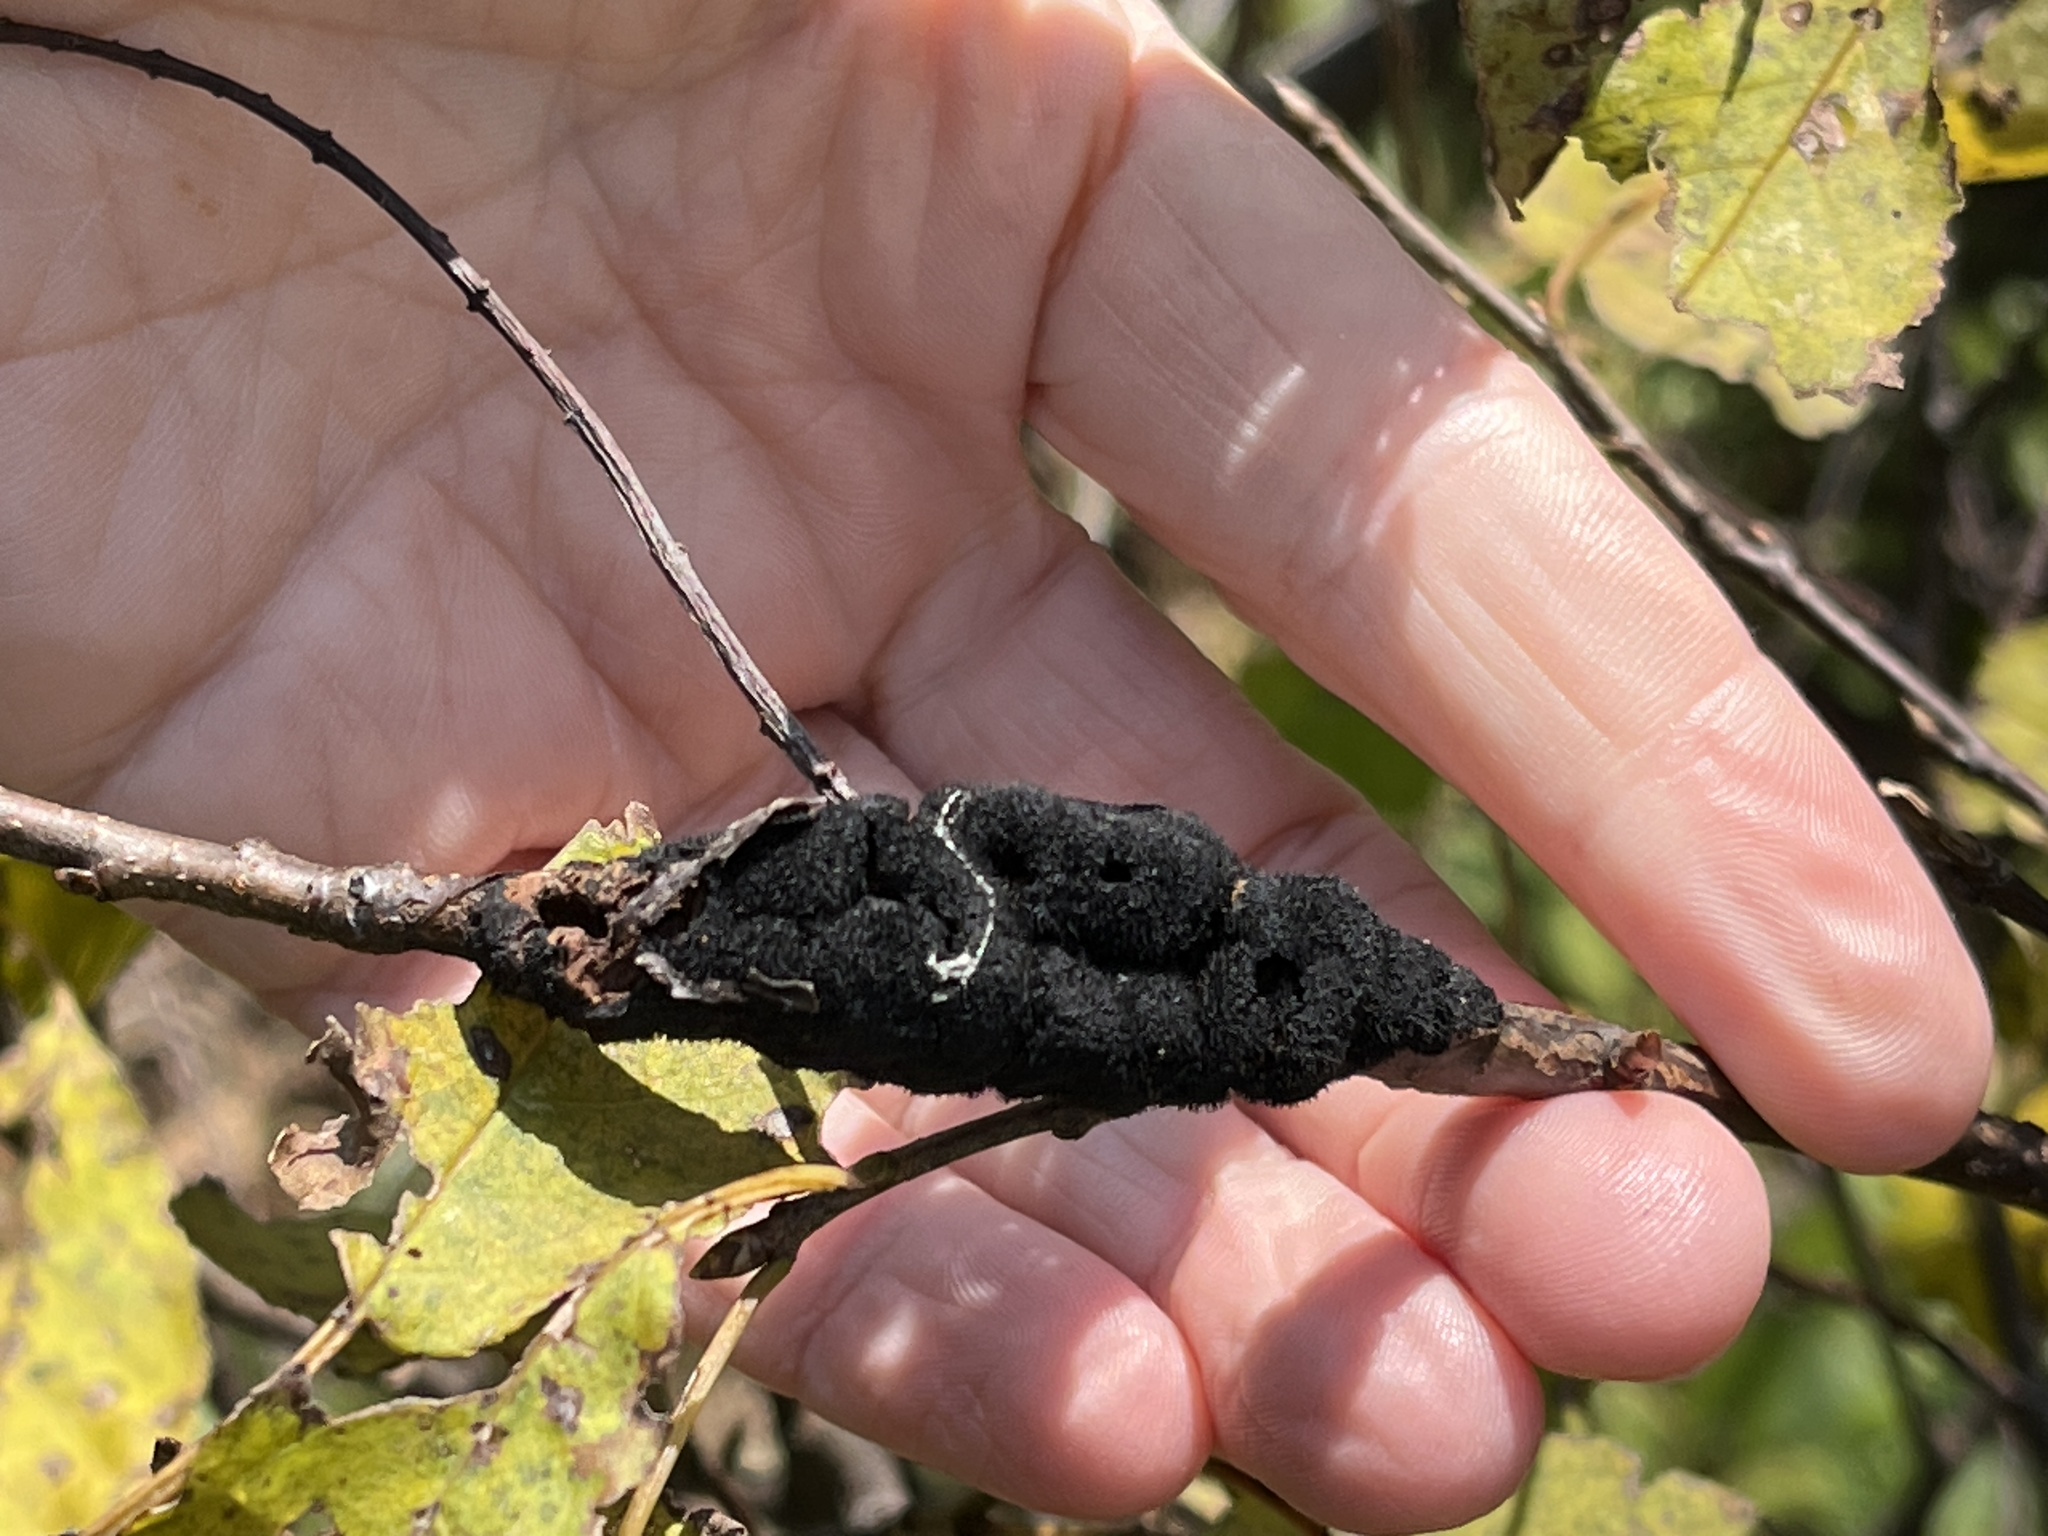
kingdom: Fungi
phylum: Ascomycota
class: Dothideomycetes
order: Venturiales
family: Venturiaceae
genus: Apiosporina
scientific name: Apiosporina morbosa
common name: Black knot
